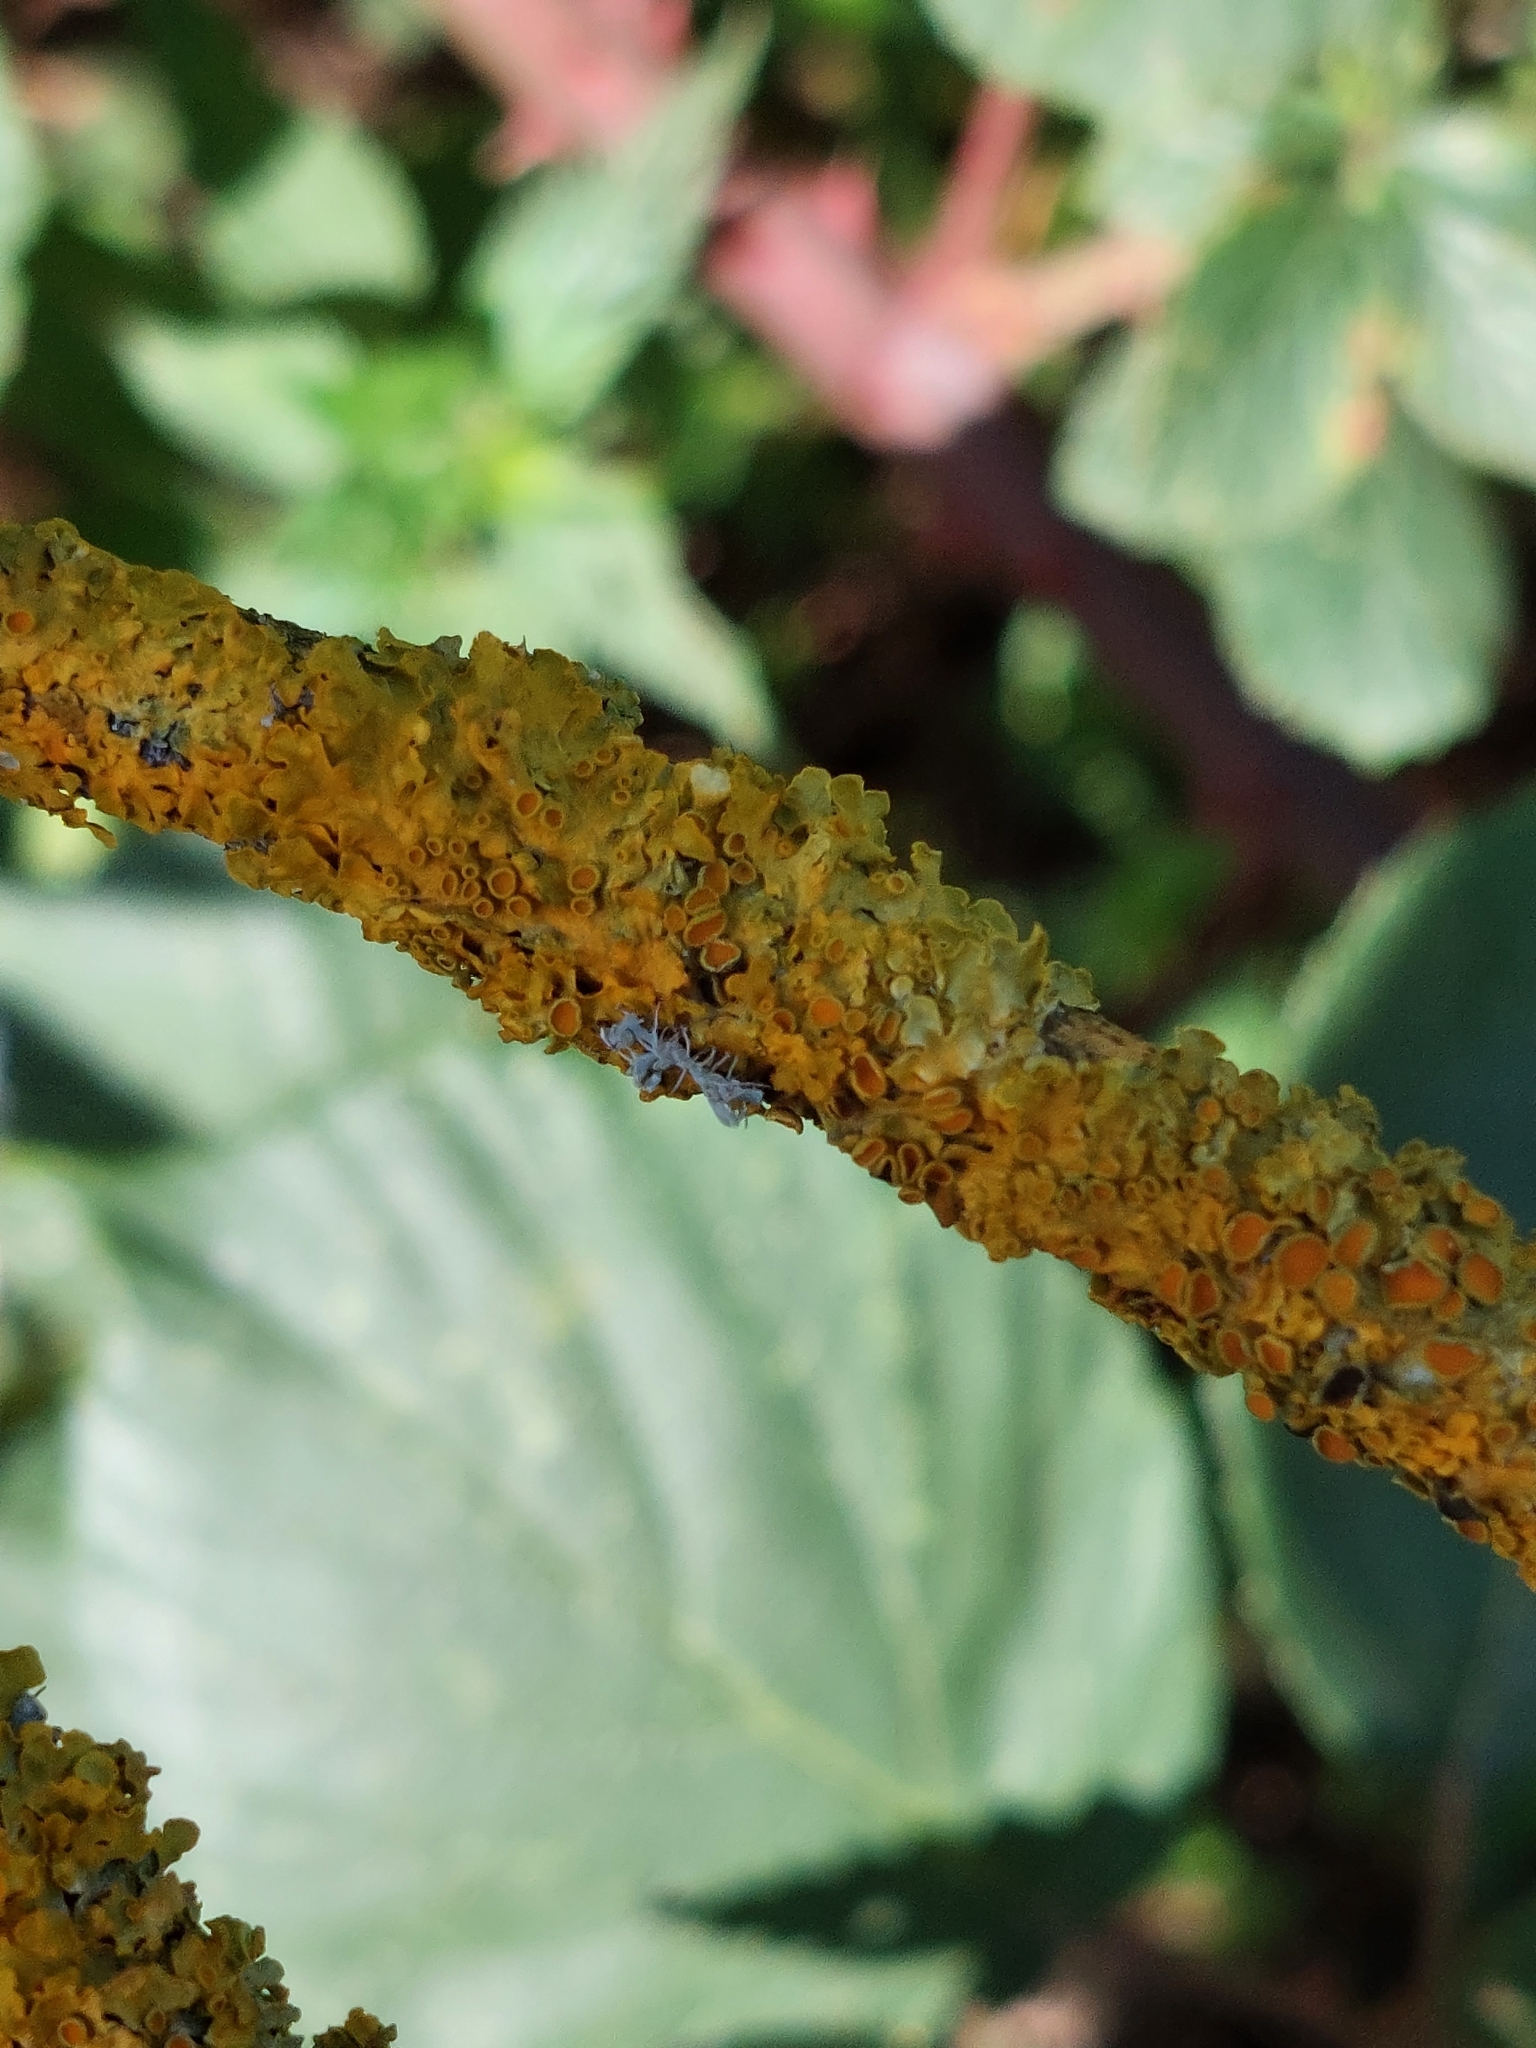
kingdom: Fungi
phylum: Ascomycota
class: Lecanoromycetes
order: Teloschistales
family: Teloschistaceae
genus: Xanthoria
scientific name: Xanthoria parietina
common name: Common orange lichen
